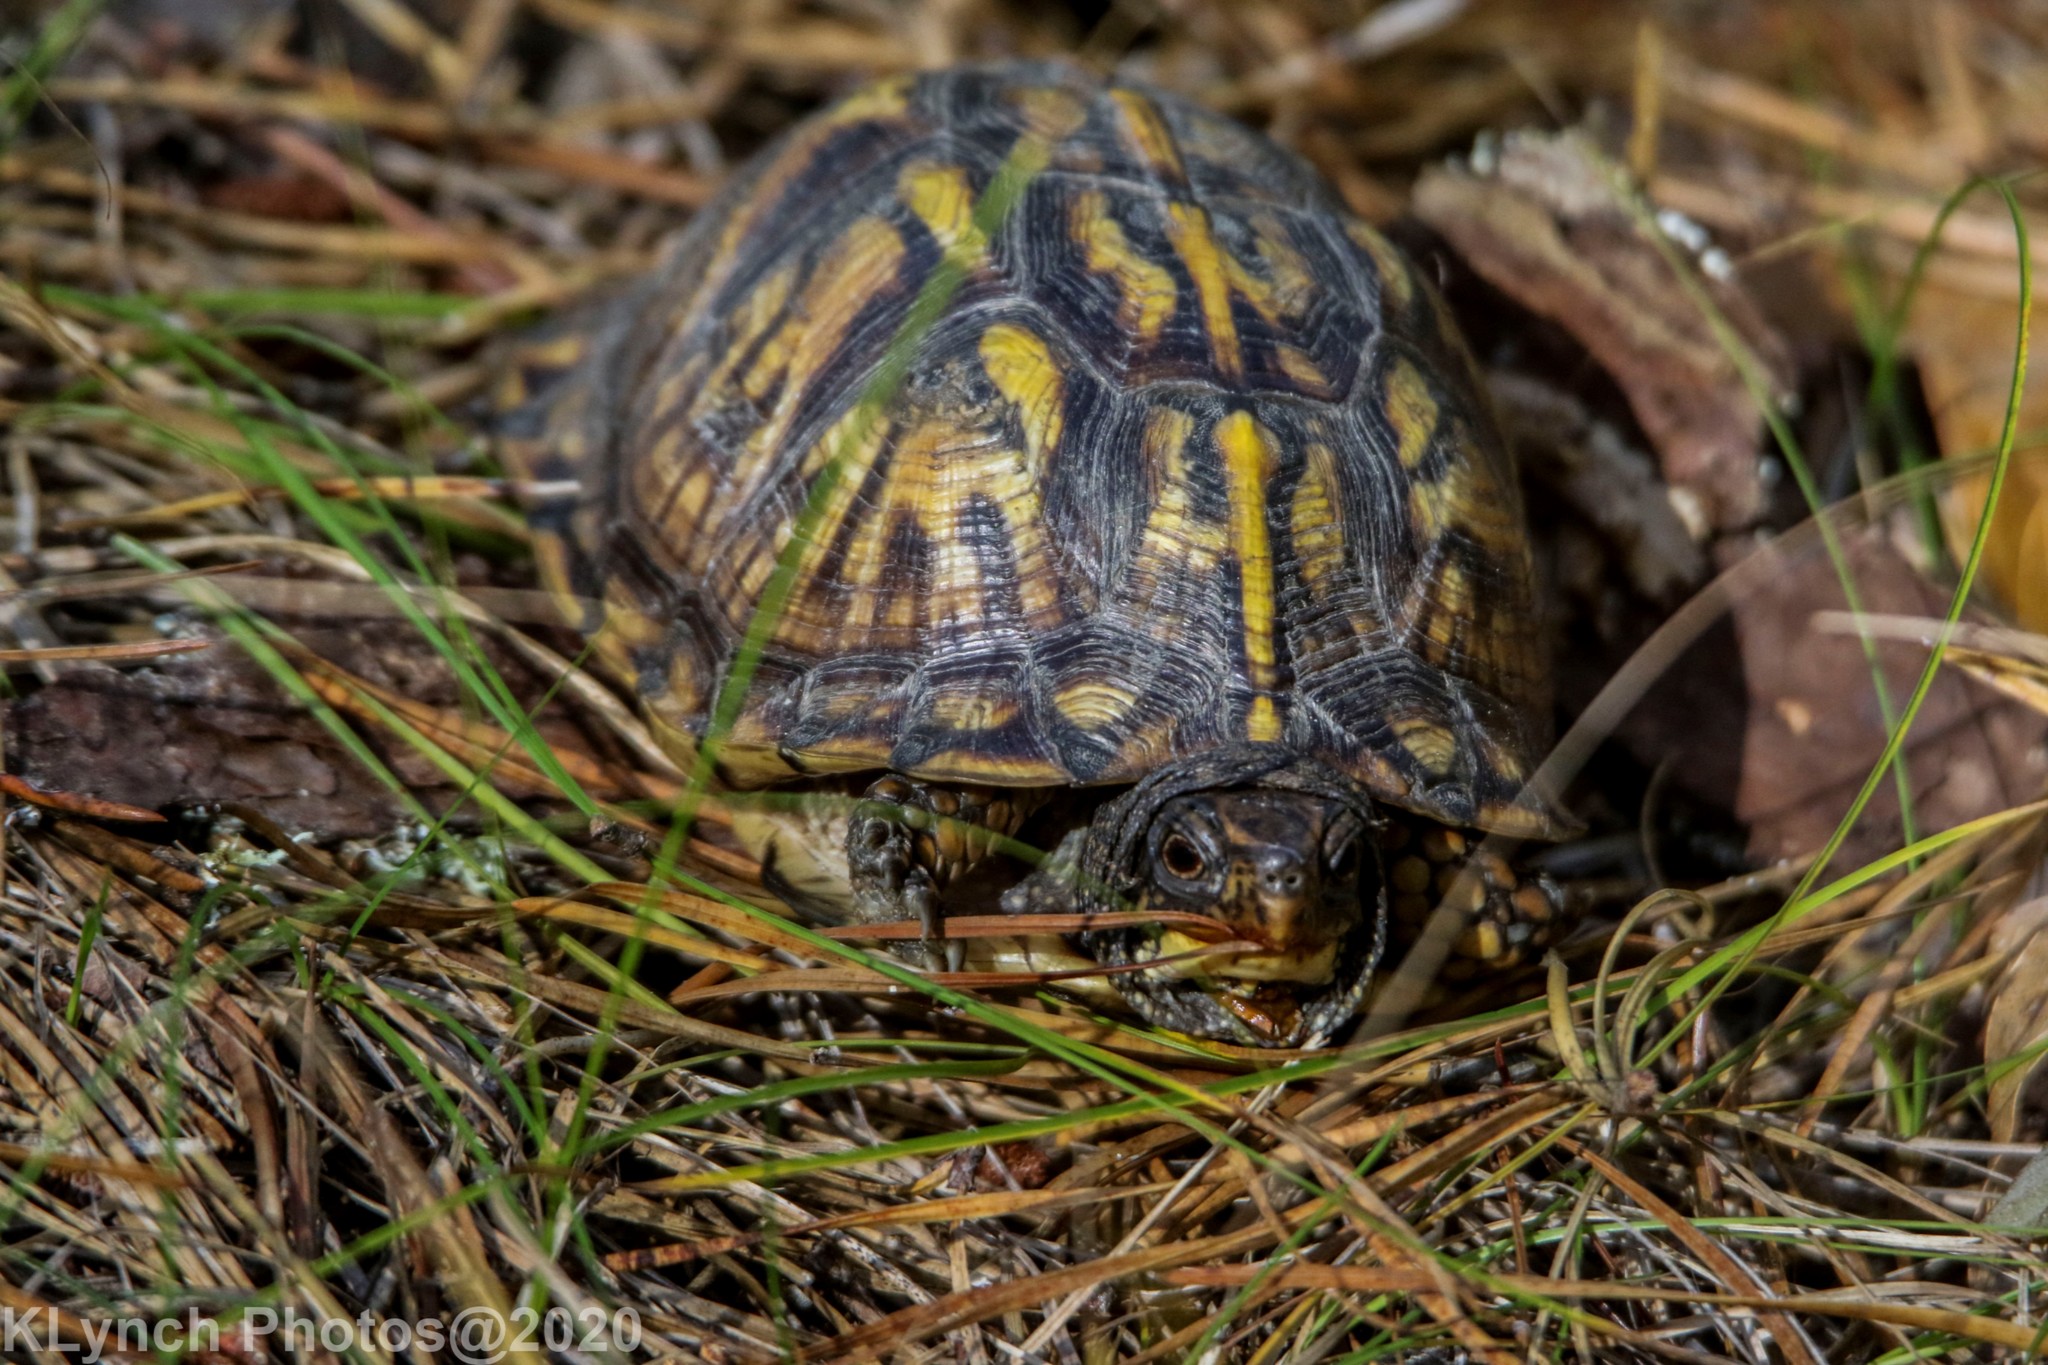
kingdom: Animalia
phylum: Chordata
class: Testudines
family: Emydidae
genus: Terrapene
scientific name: Terrapene carolina
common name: Common box turtle
